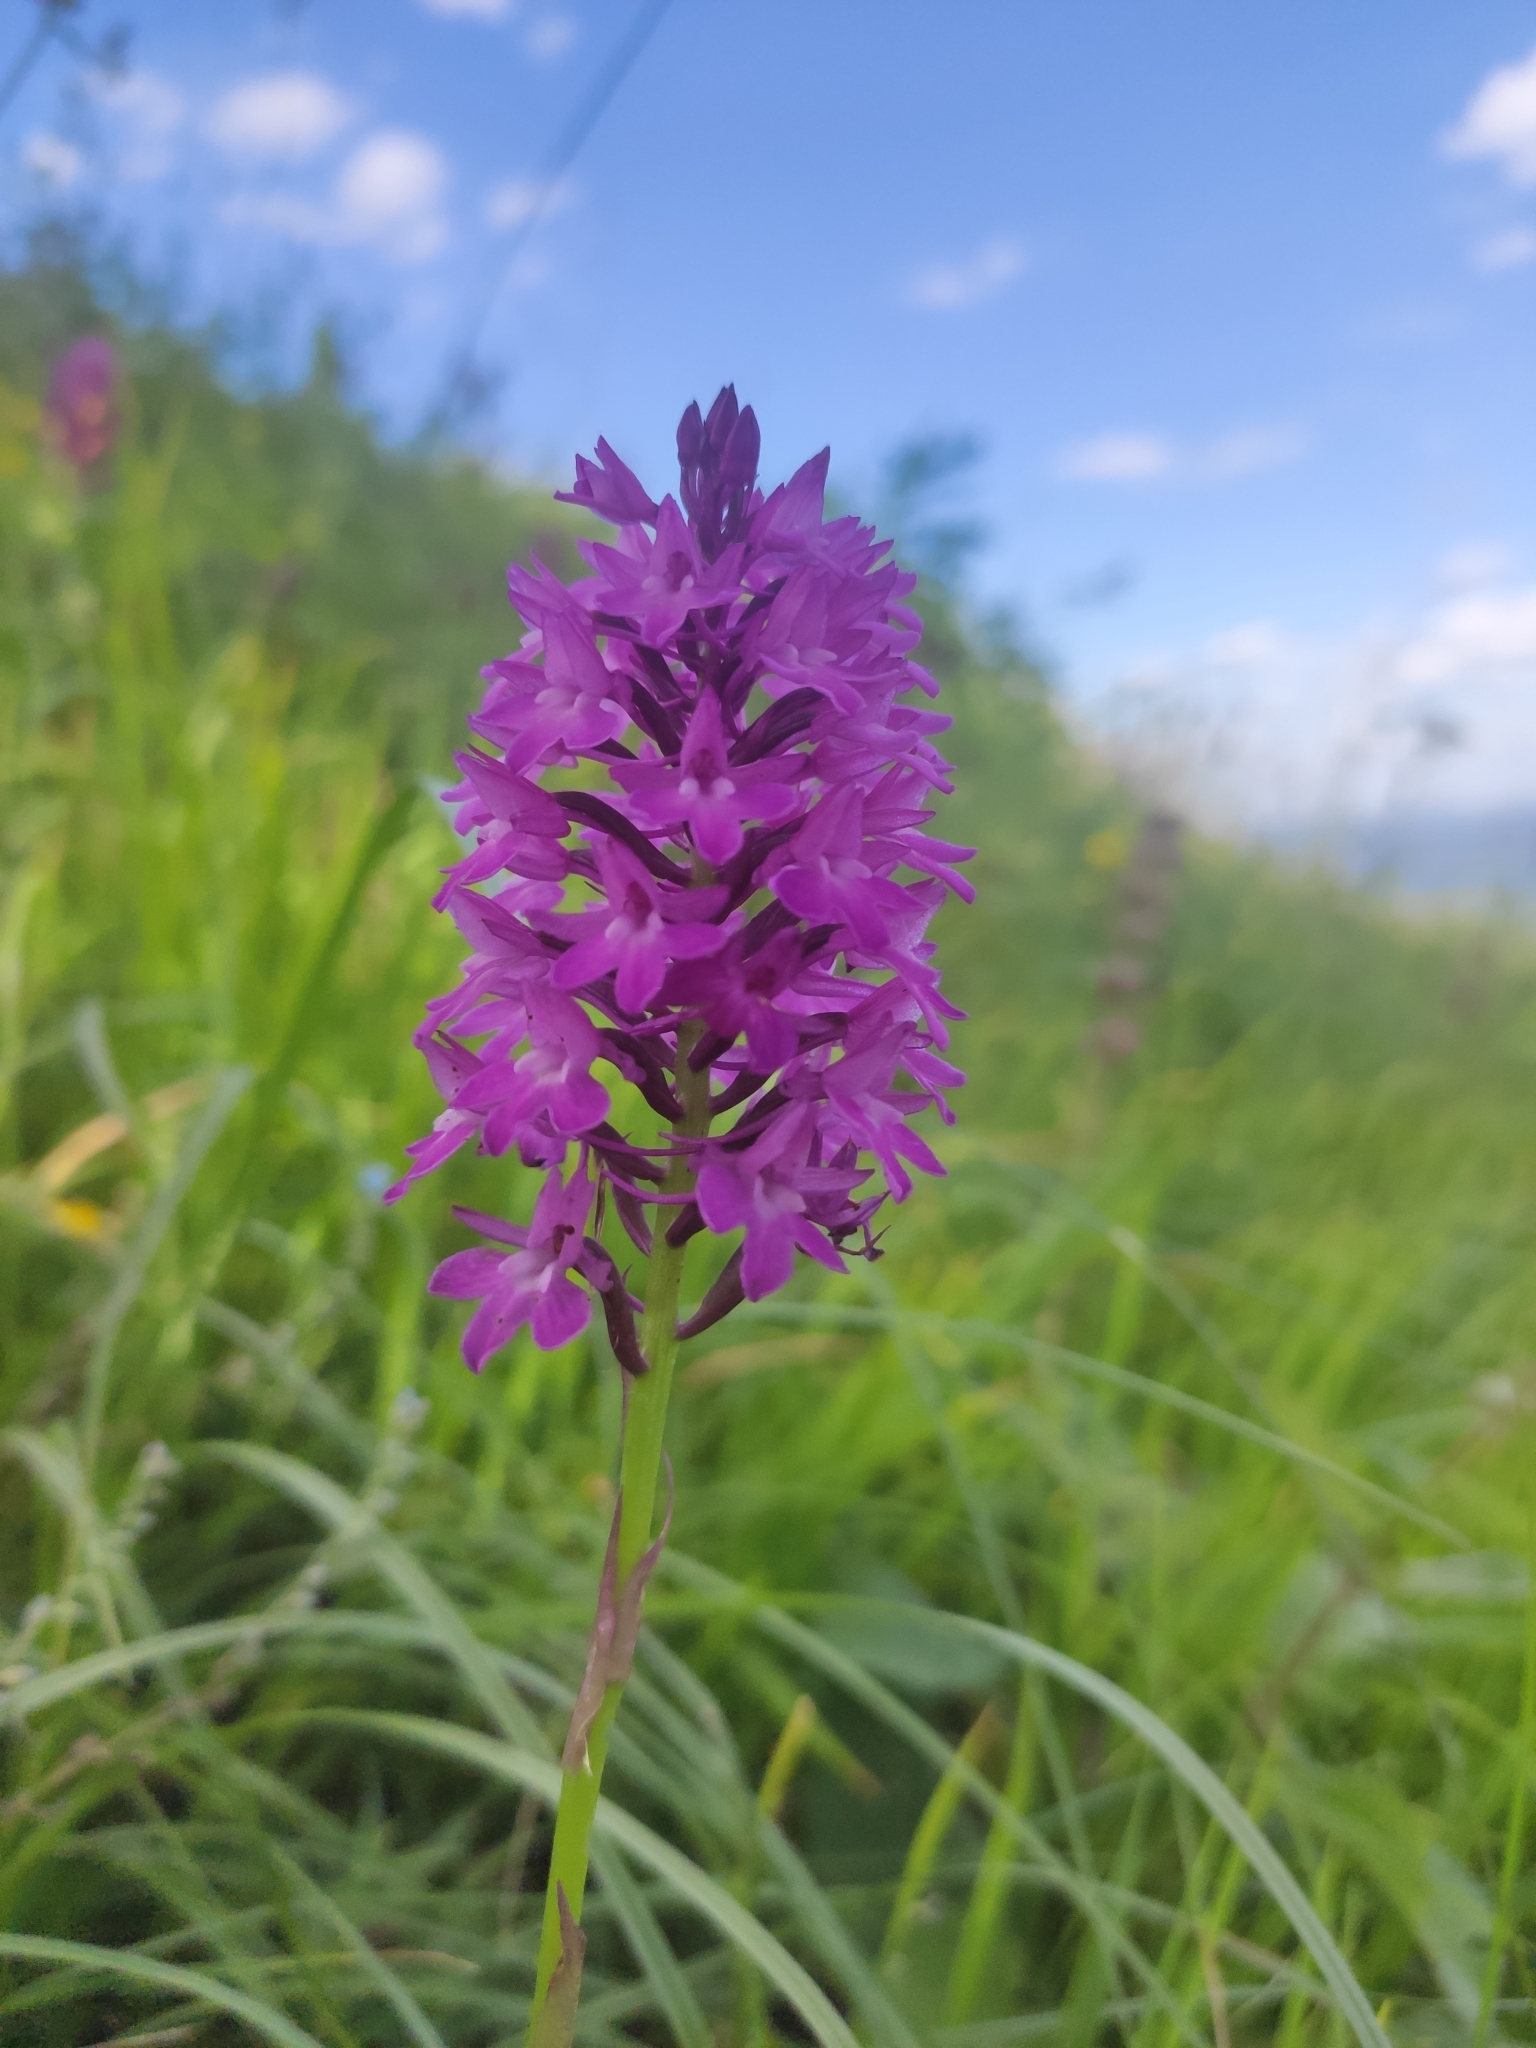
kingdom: Plantae
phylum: Tracheophyta
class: Liliopsida
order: Asparagales
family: Orchidaceae
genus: Anacamptis
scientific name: Anacamptis pyramidalis
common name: Pyramidal orchid
